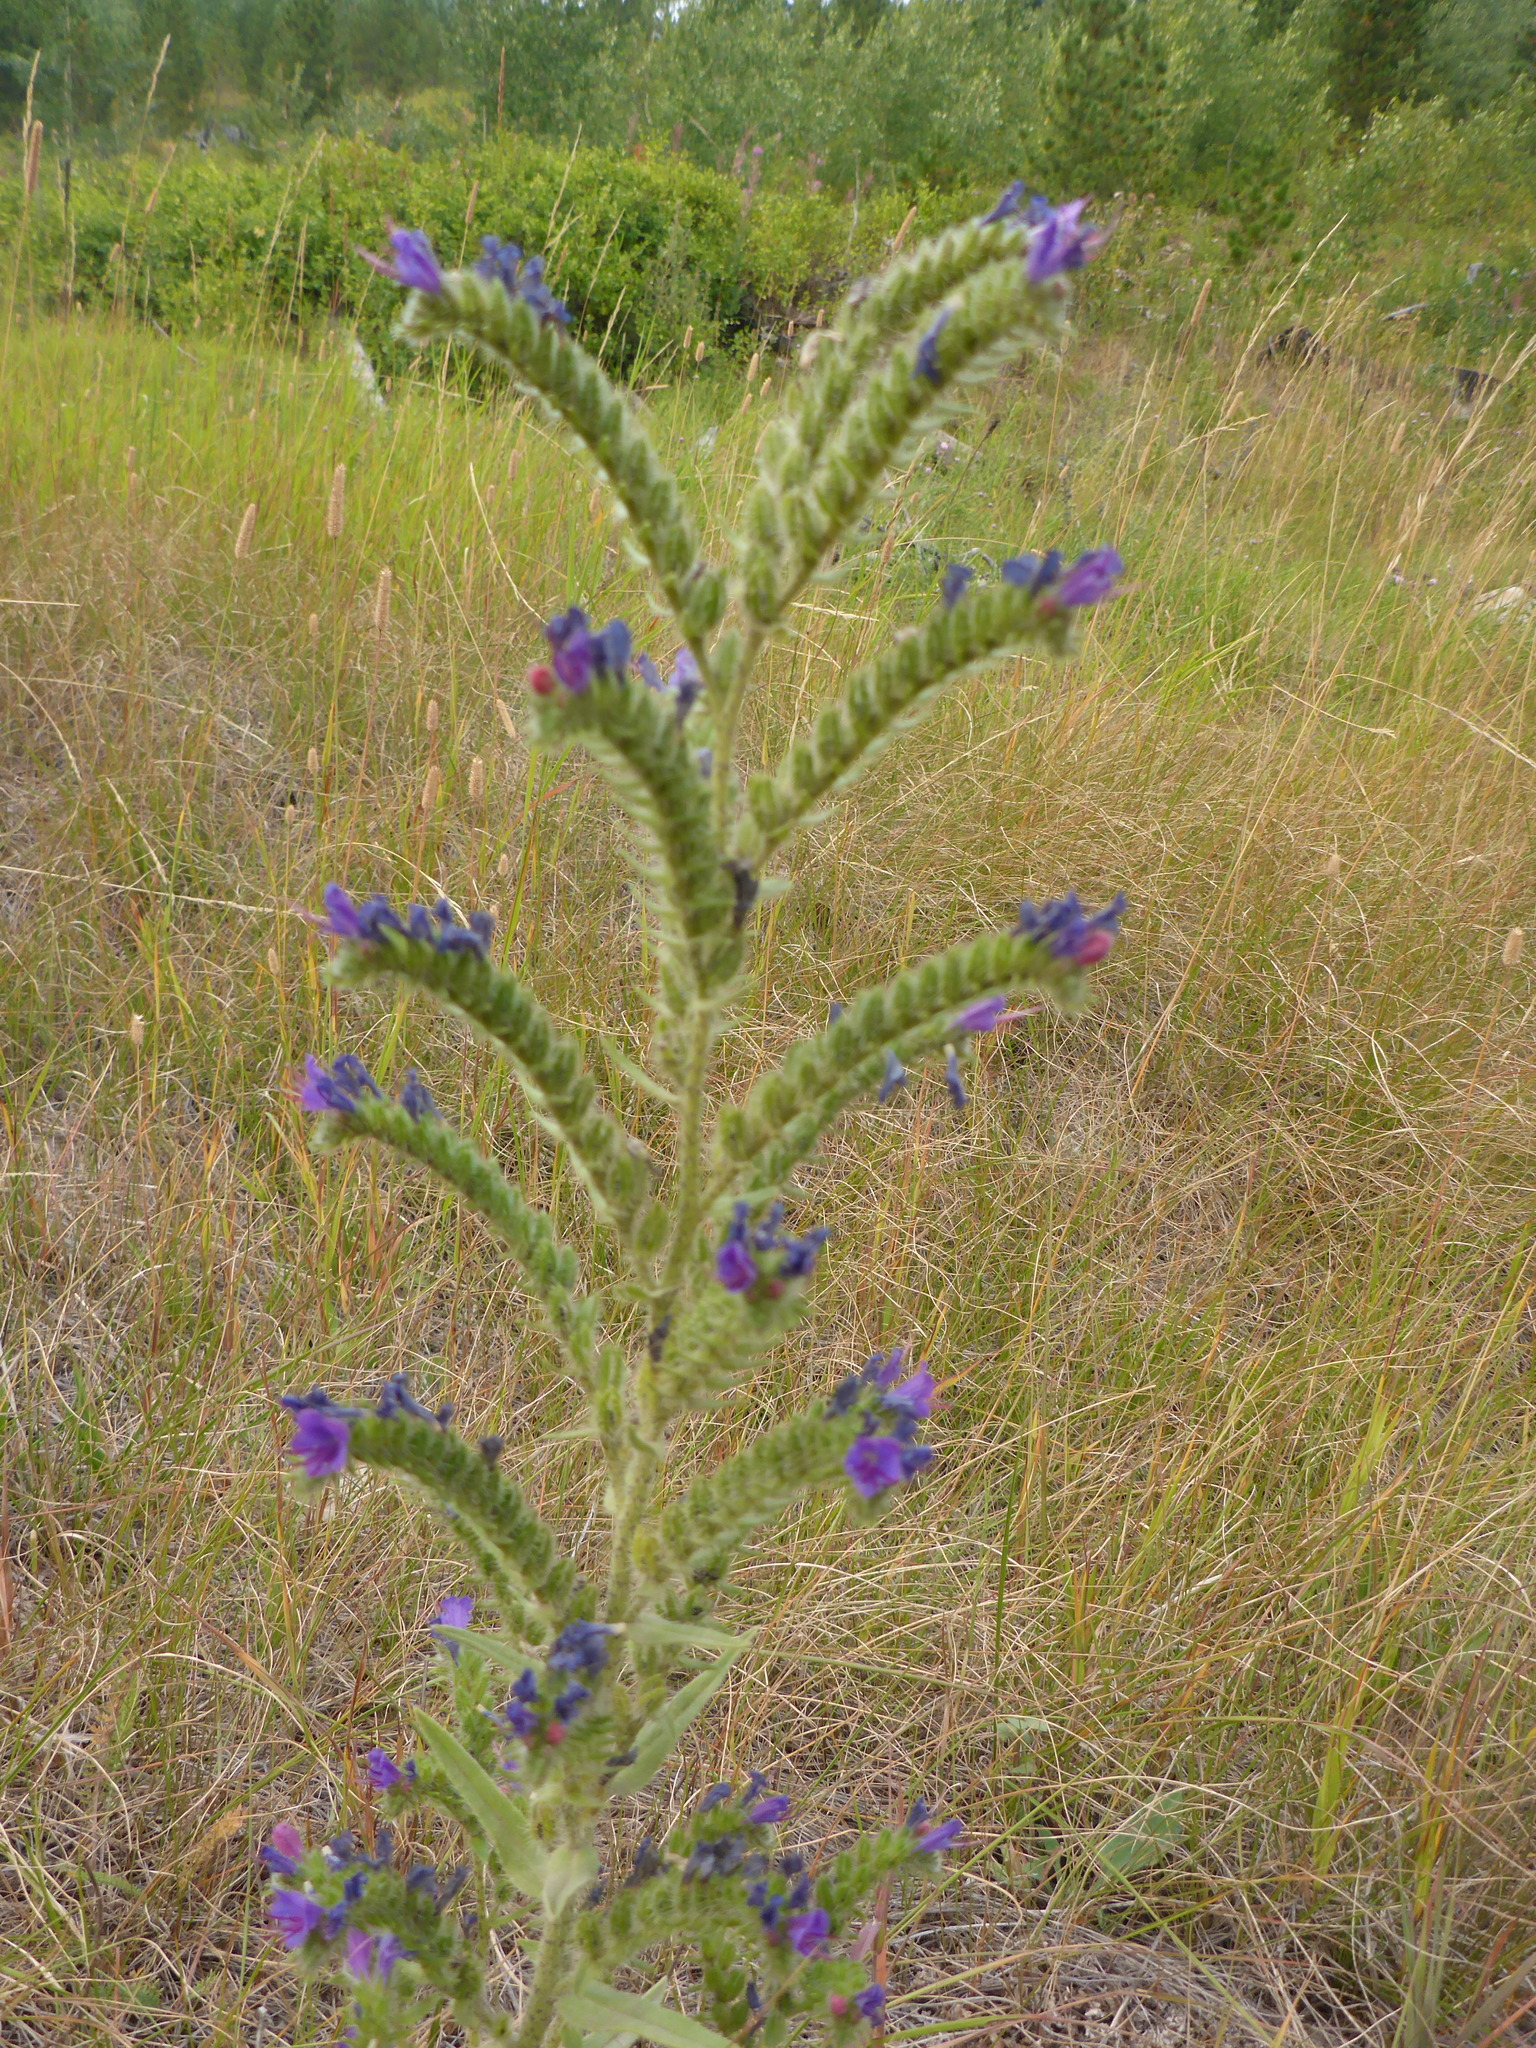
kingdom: Plantae
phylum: Tracheophyta
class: Magnoliopsida
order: Boraginales
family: Boraginaceae
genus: Echium
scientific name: Echium vulgare
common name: Common viper's bugloss
